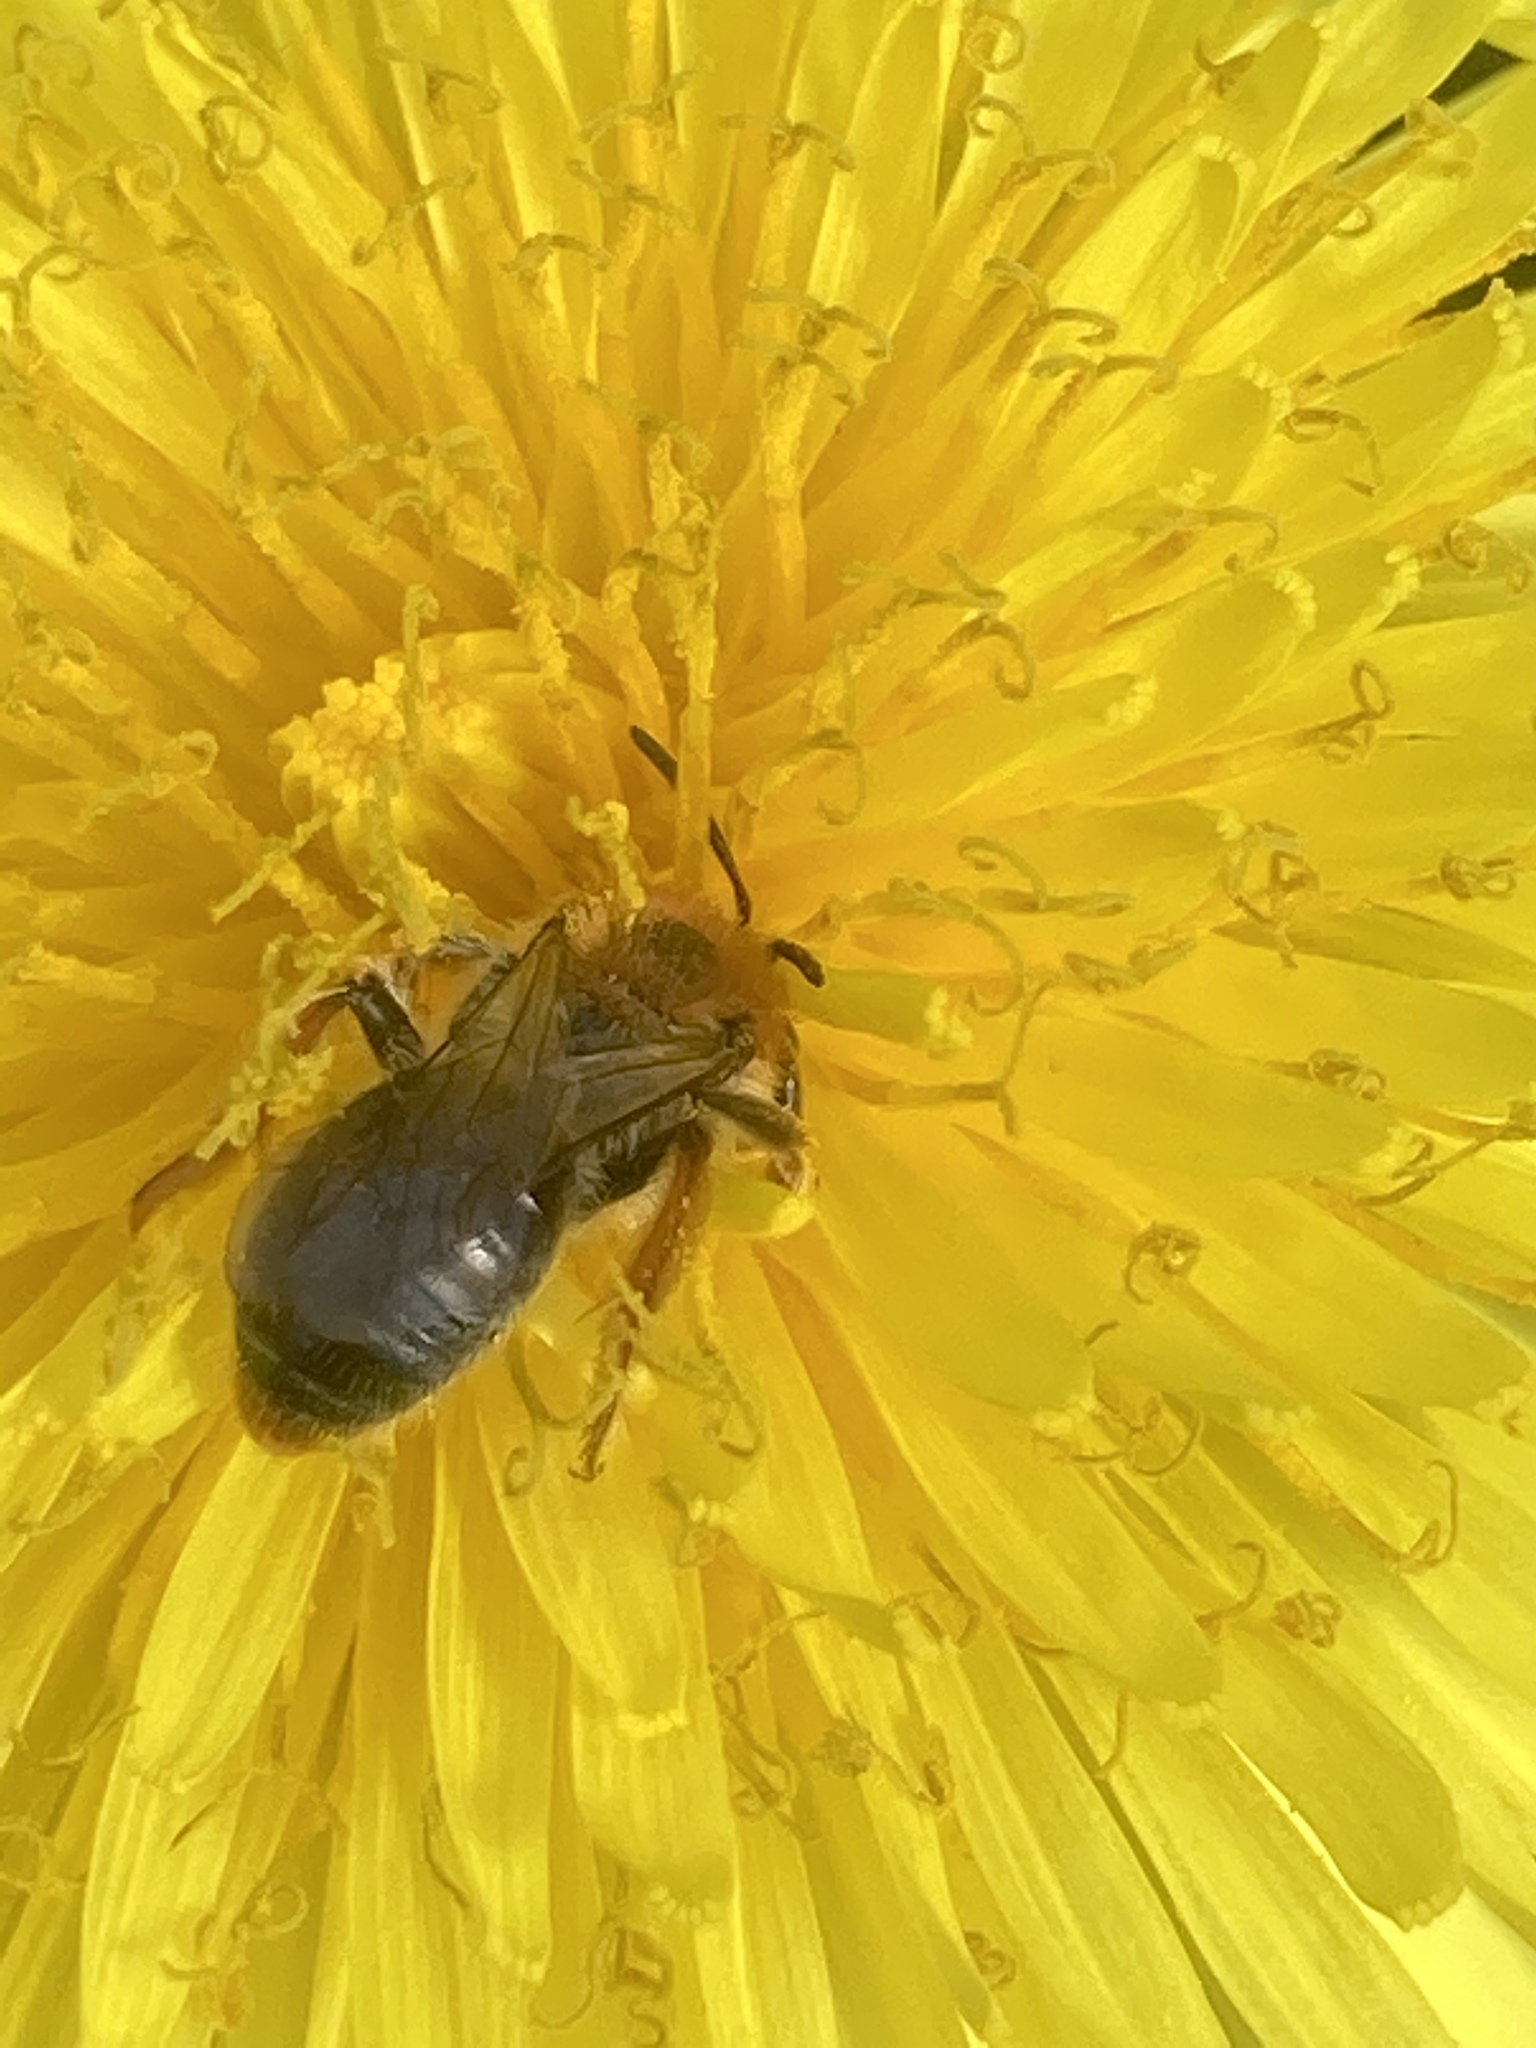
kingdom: Animalia
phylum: Arthropoda
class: Insecta
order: Hymenoptera
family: Andrenidae
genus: Andrena
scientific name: Andrena haemorrhoa
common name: Early mining bee
